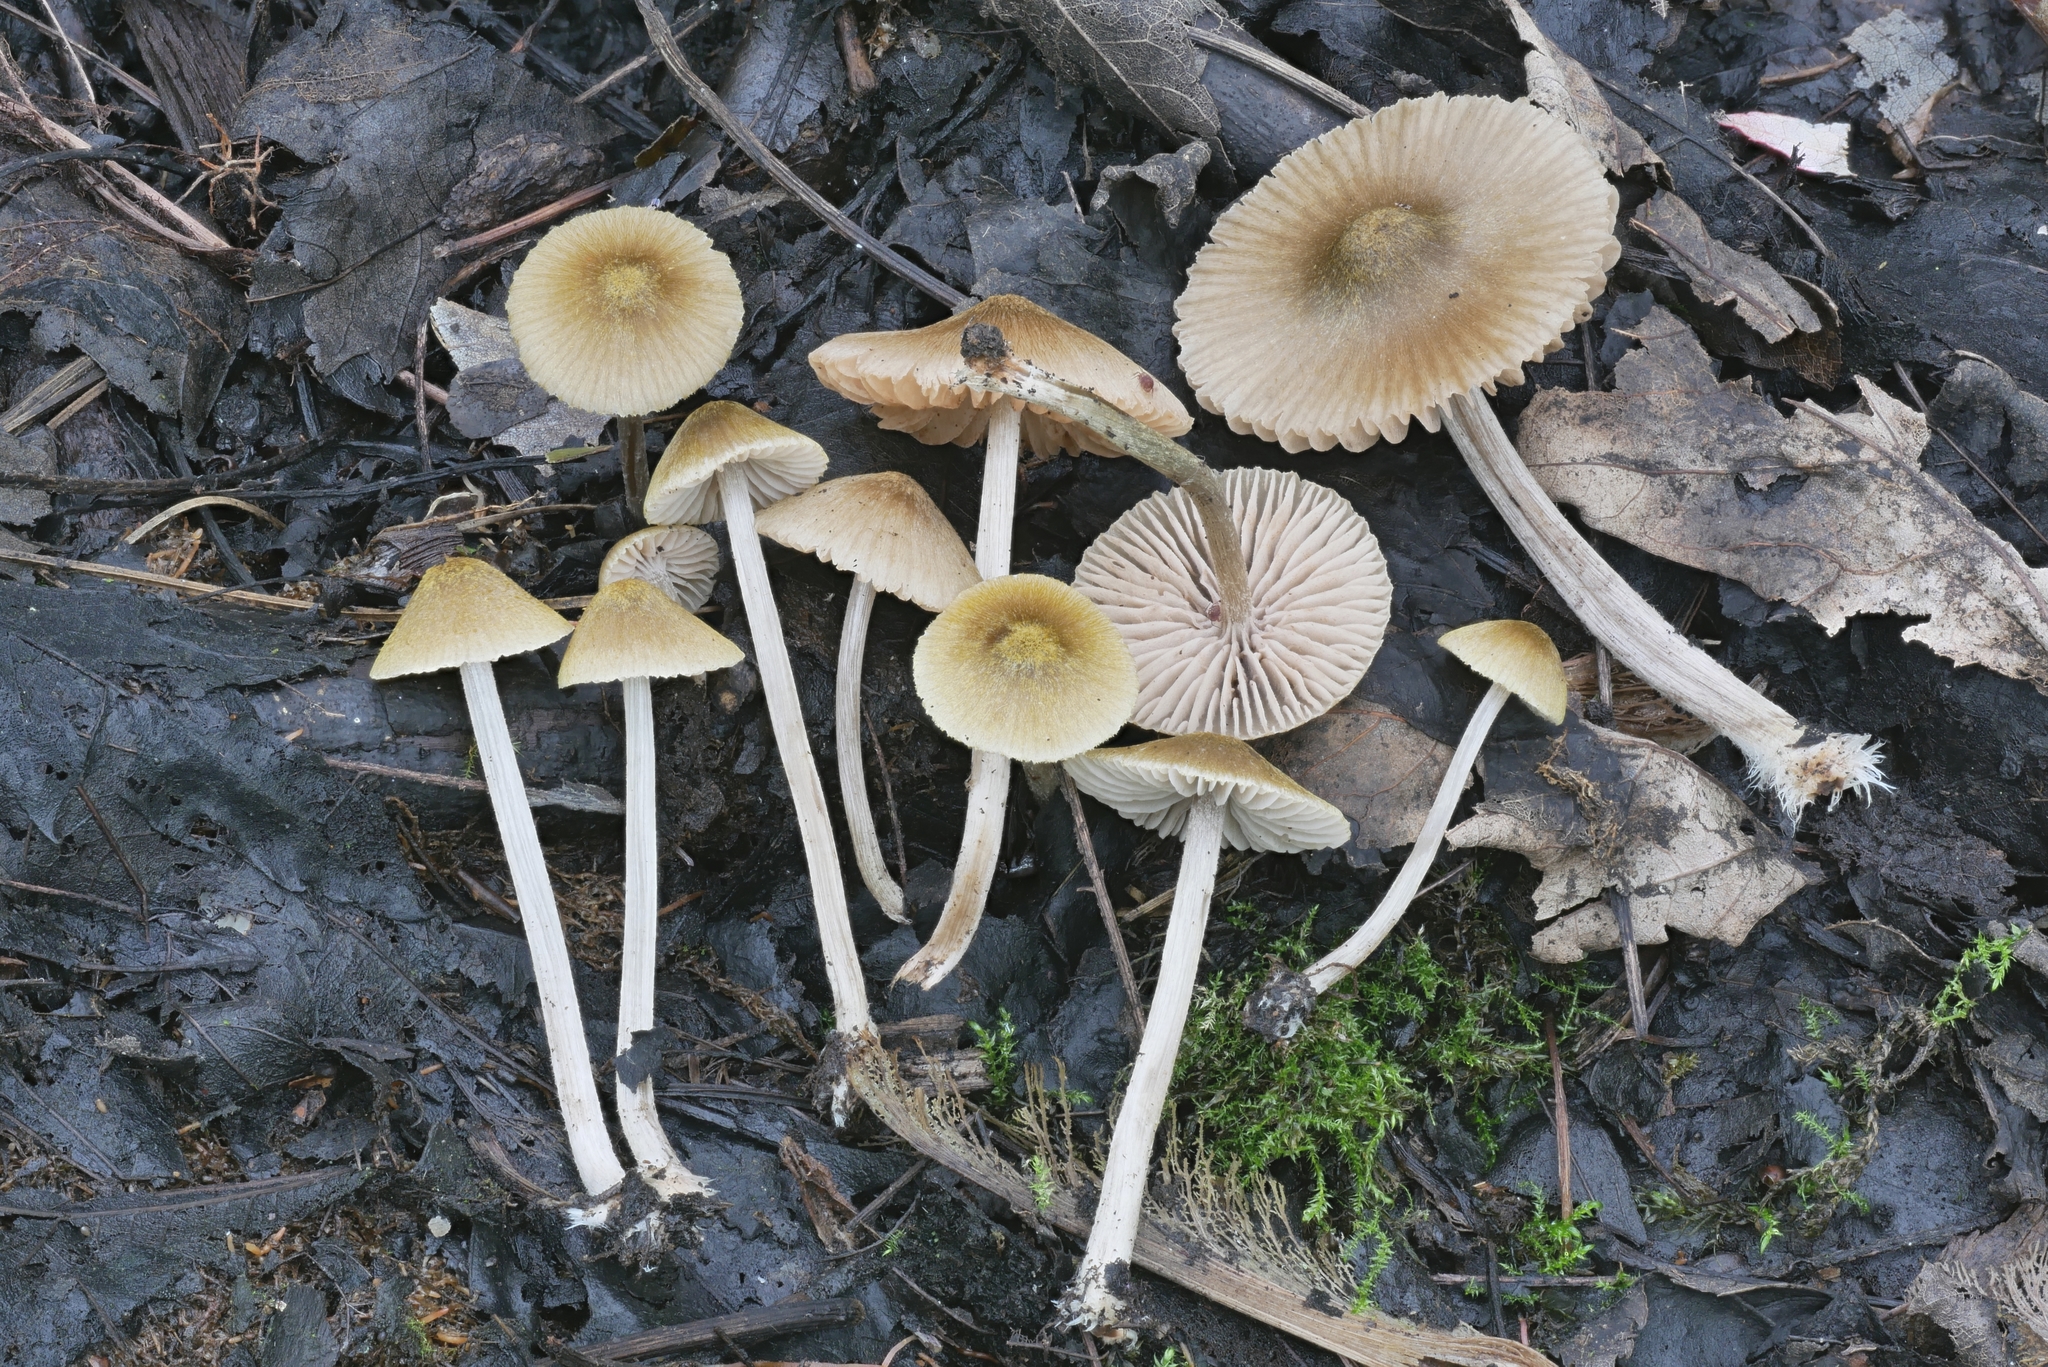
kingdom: Fungi
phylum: Basidiomycota
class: Agaricomycetes
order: Agaricales
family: Entolomataceae
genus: Entoloma
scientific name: Entoloma flavoviride
